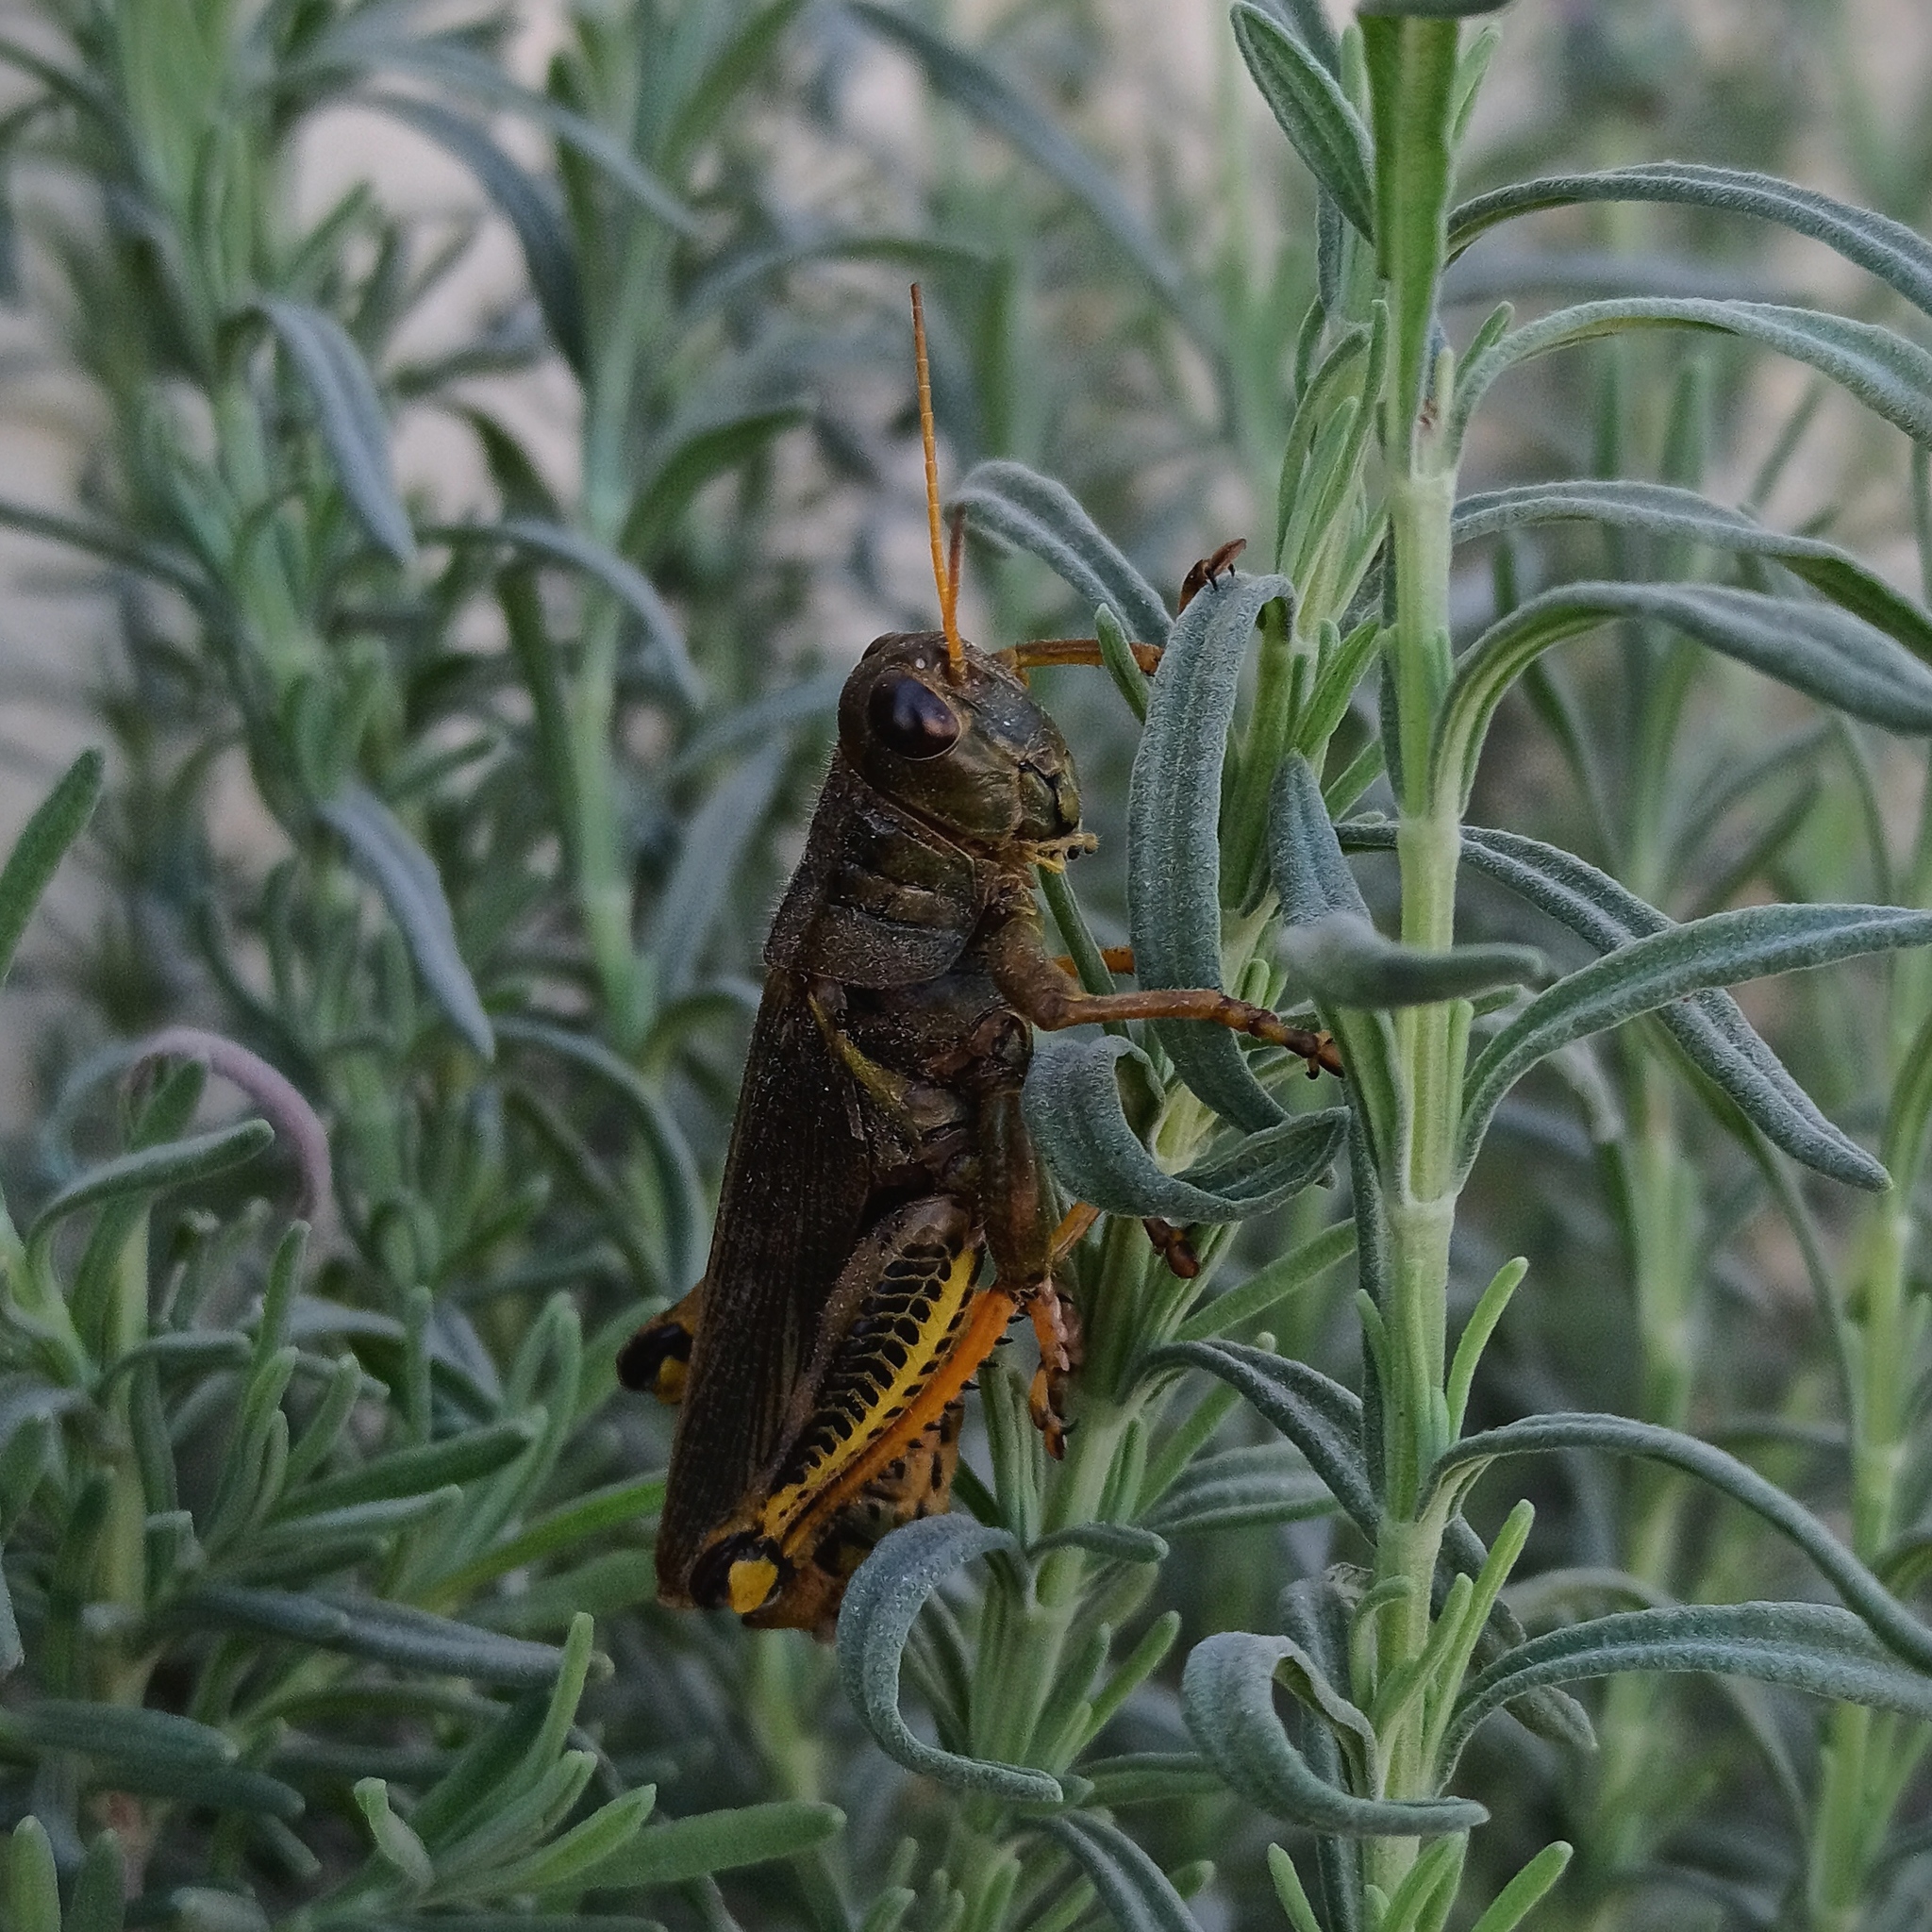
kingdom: Animalia
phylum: Arthropoda
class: Insecta
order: Orthoptera
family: Acrididae
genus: Melanoplus
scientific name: Melanoplus differentialis
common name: Differential grasshopper
